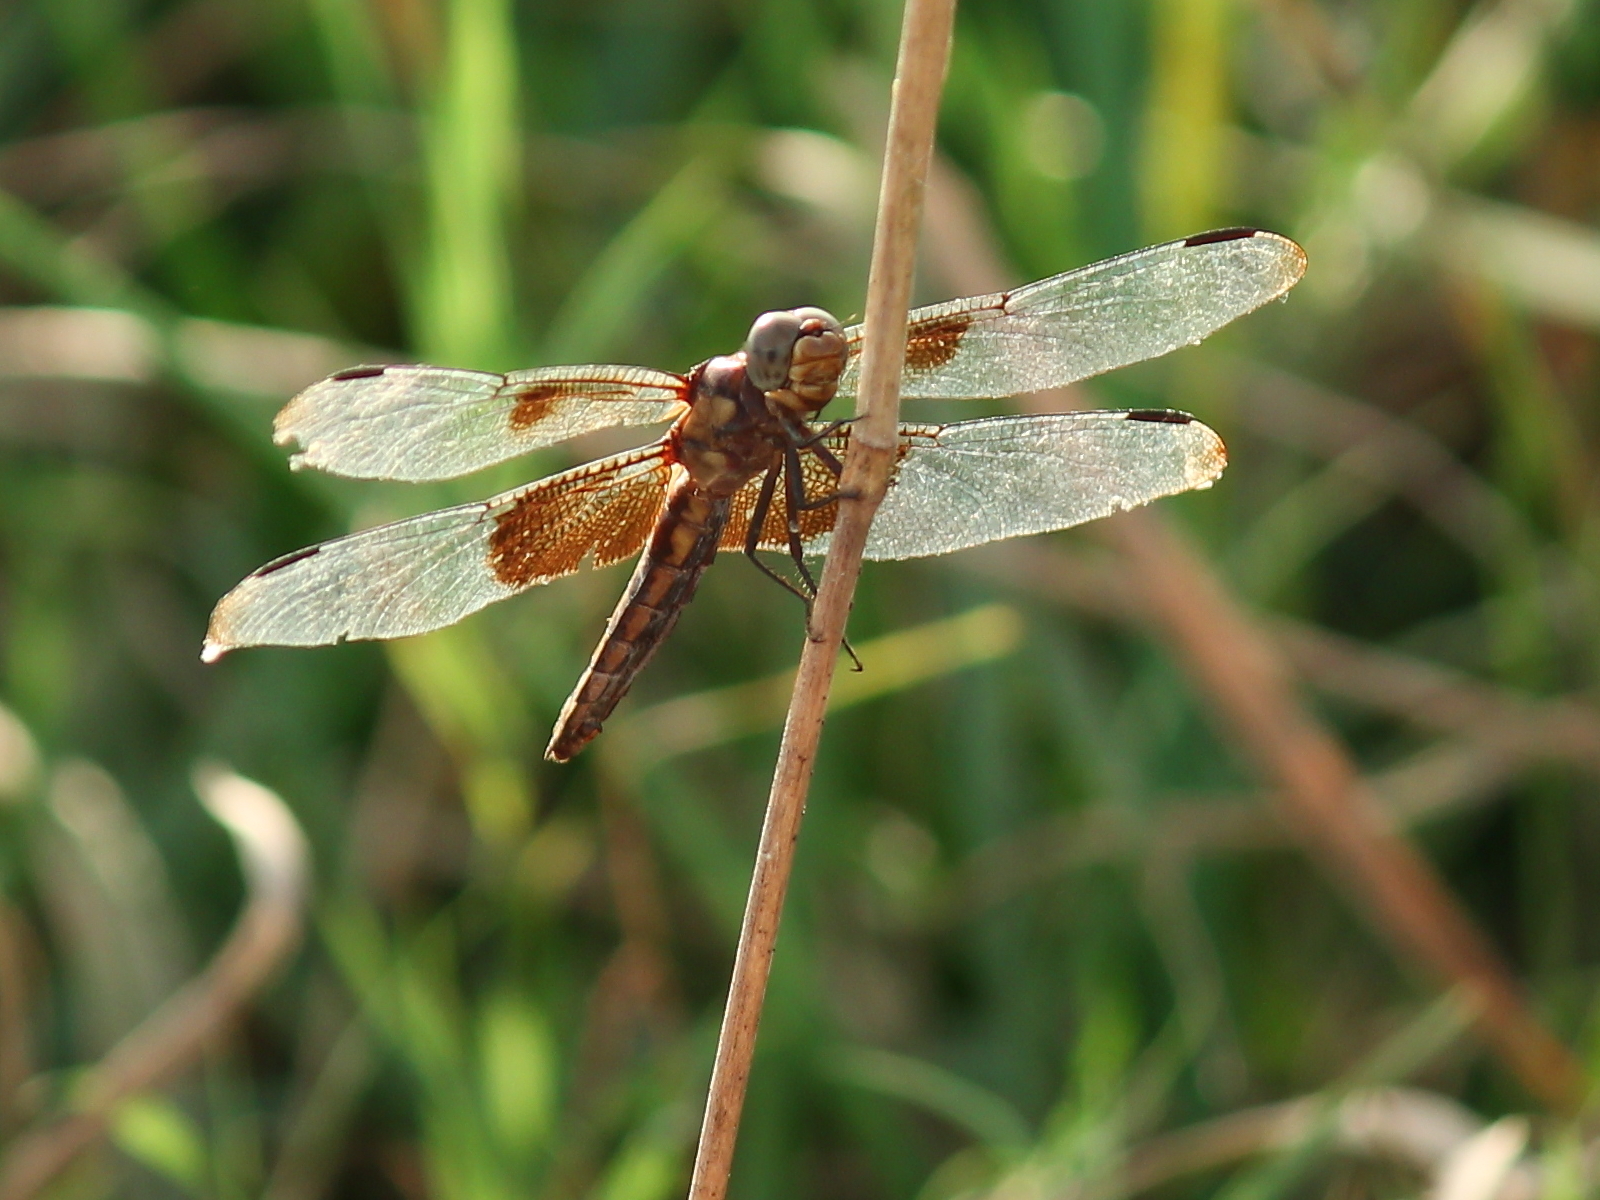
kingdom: Animalia
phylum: Arthropoda
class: Insecta
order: Odonata
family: Libellulidae
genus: Libellula
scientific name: Libellula luctuosa
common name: Widow skimmer
